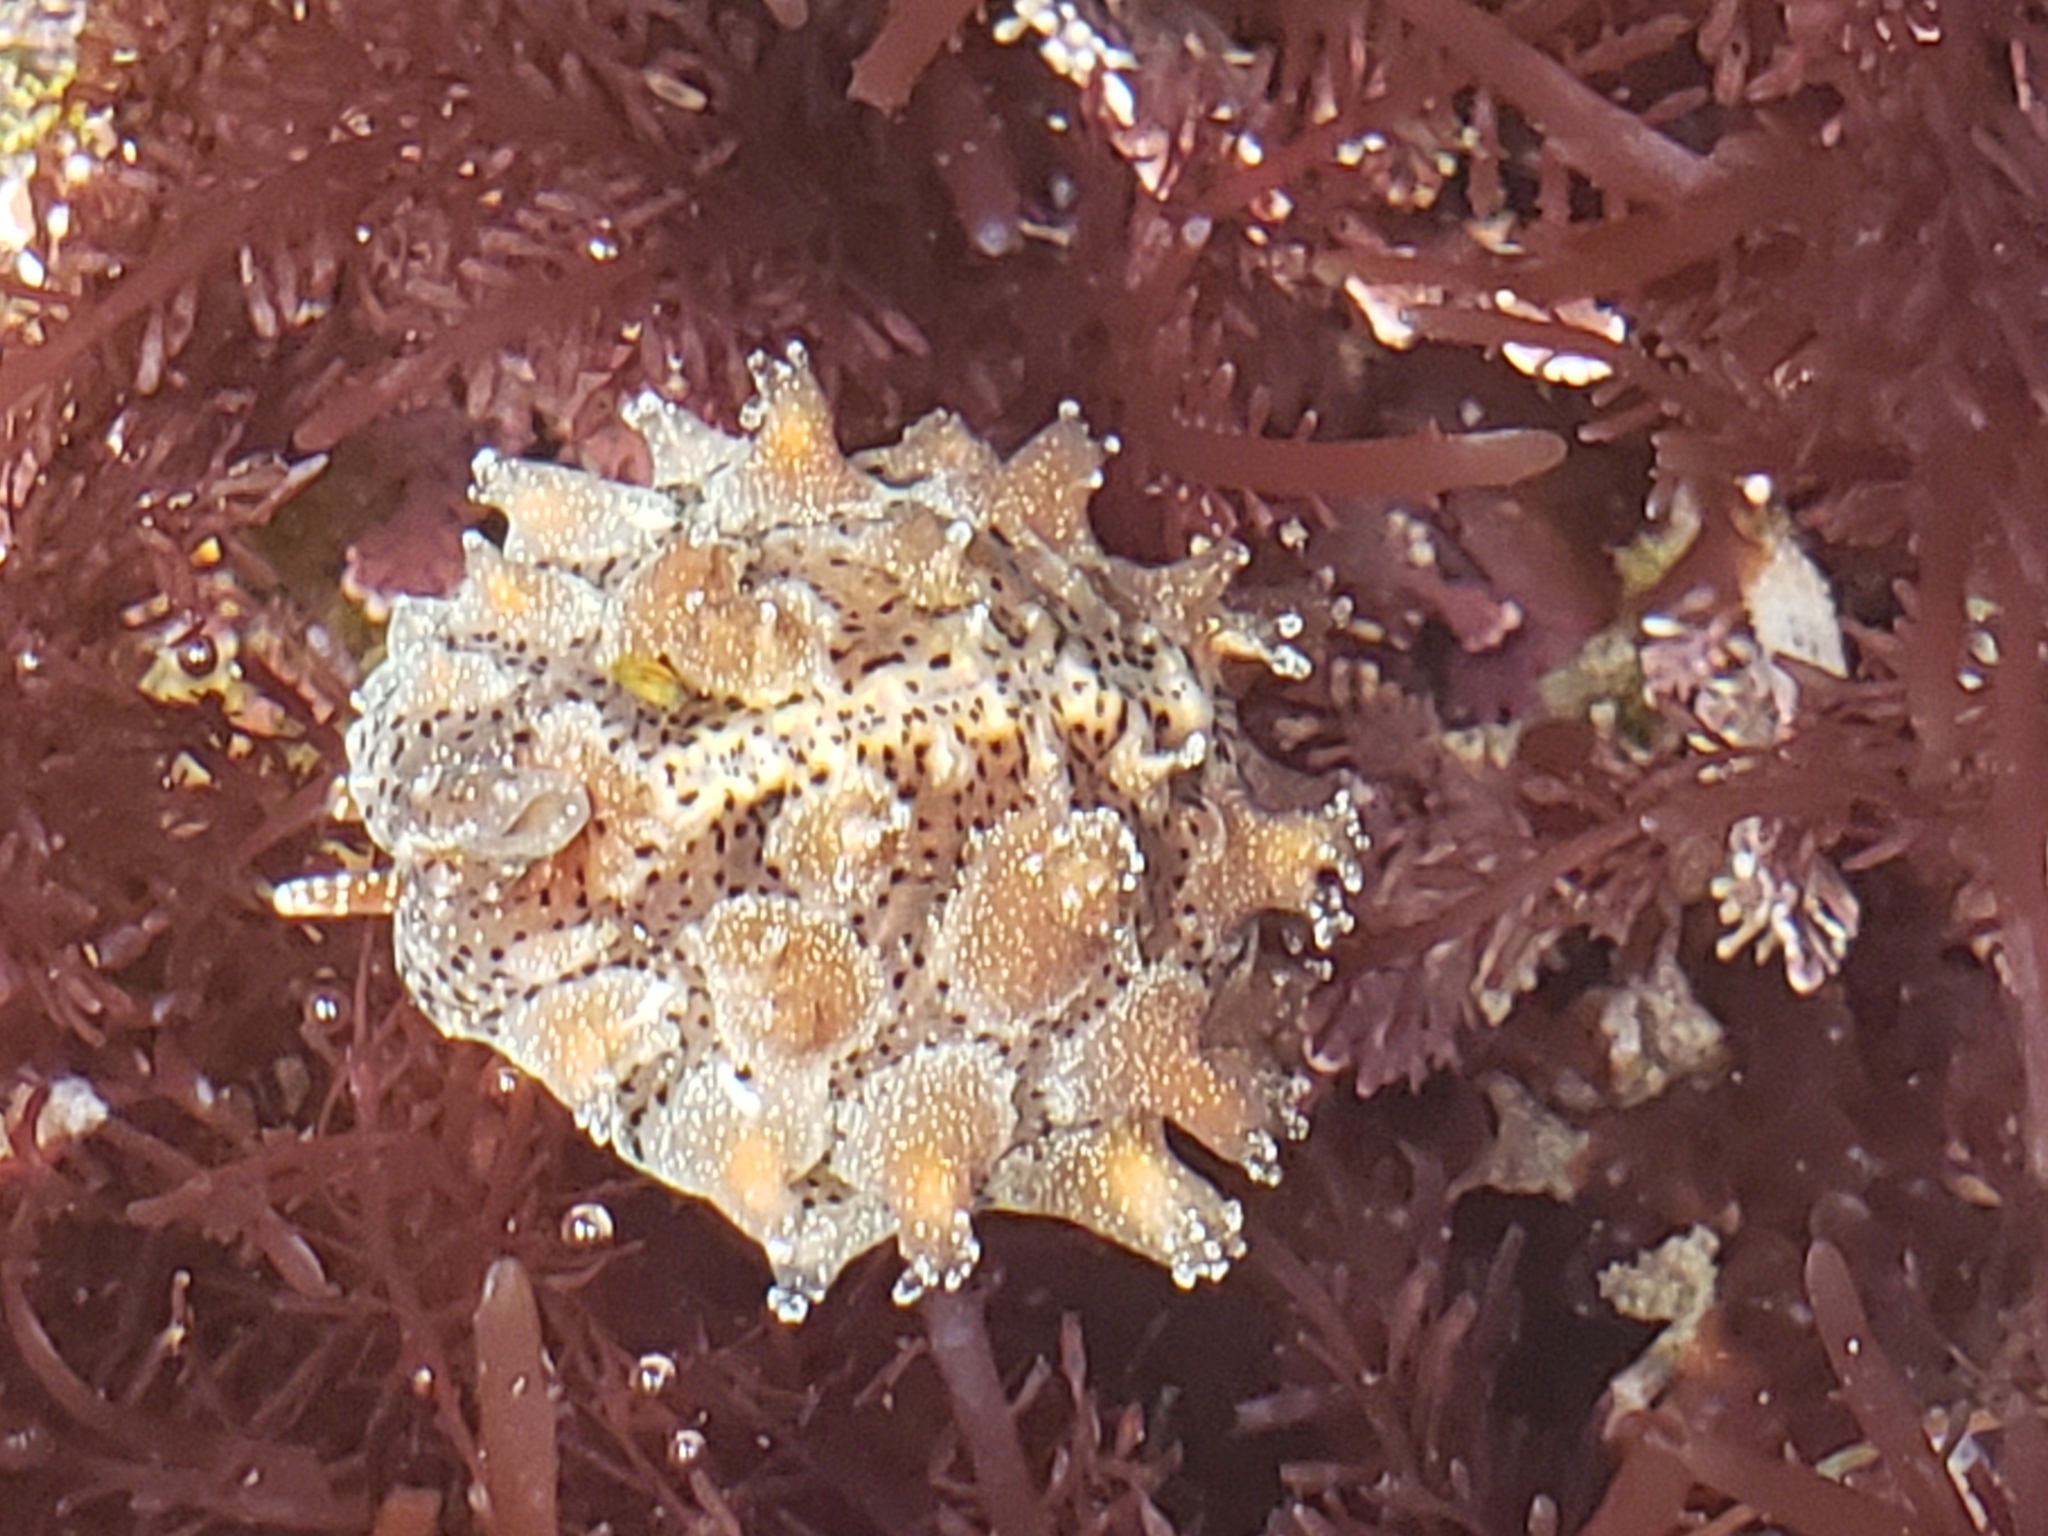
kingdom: Animalia
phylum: Mollusca
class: Gastropoda
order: Littorinimorpha
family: Triviidae
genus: Pusula
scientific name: Pusula solandri
